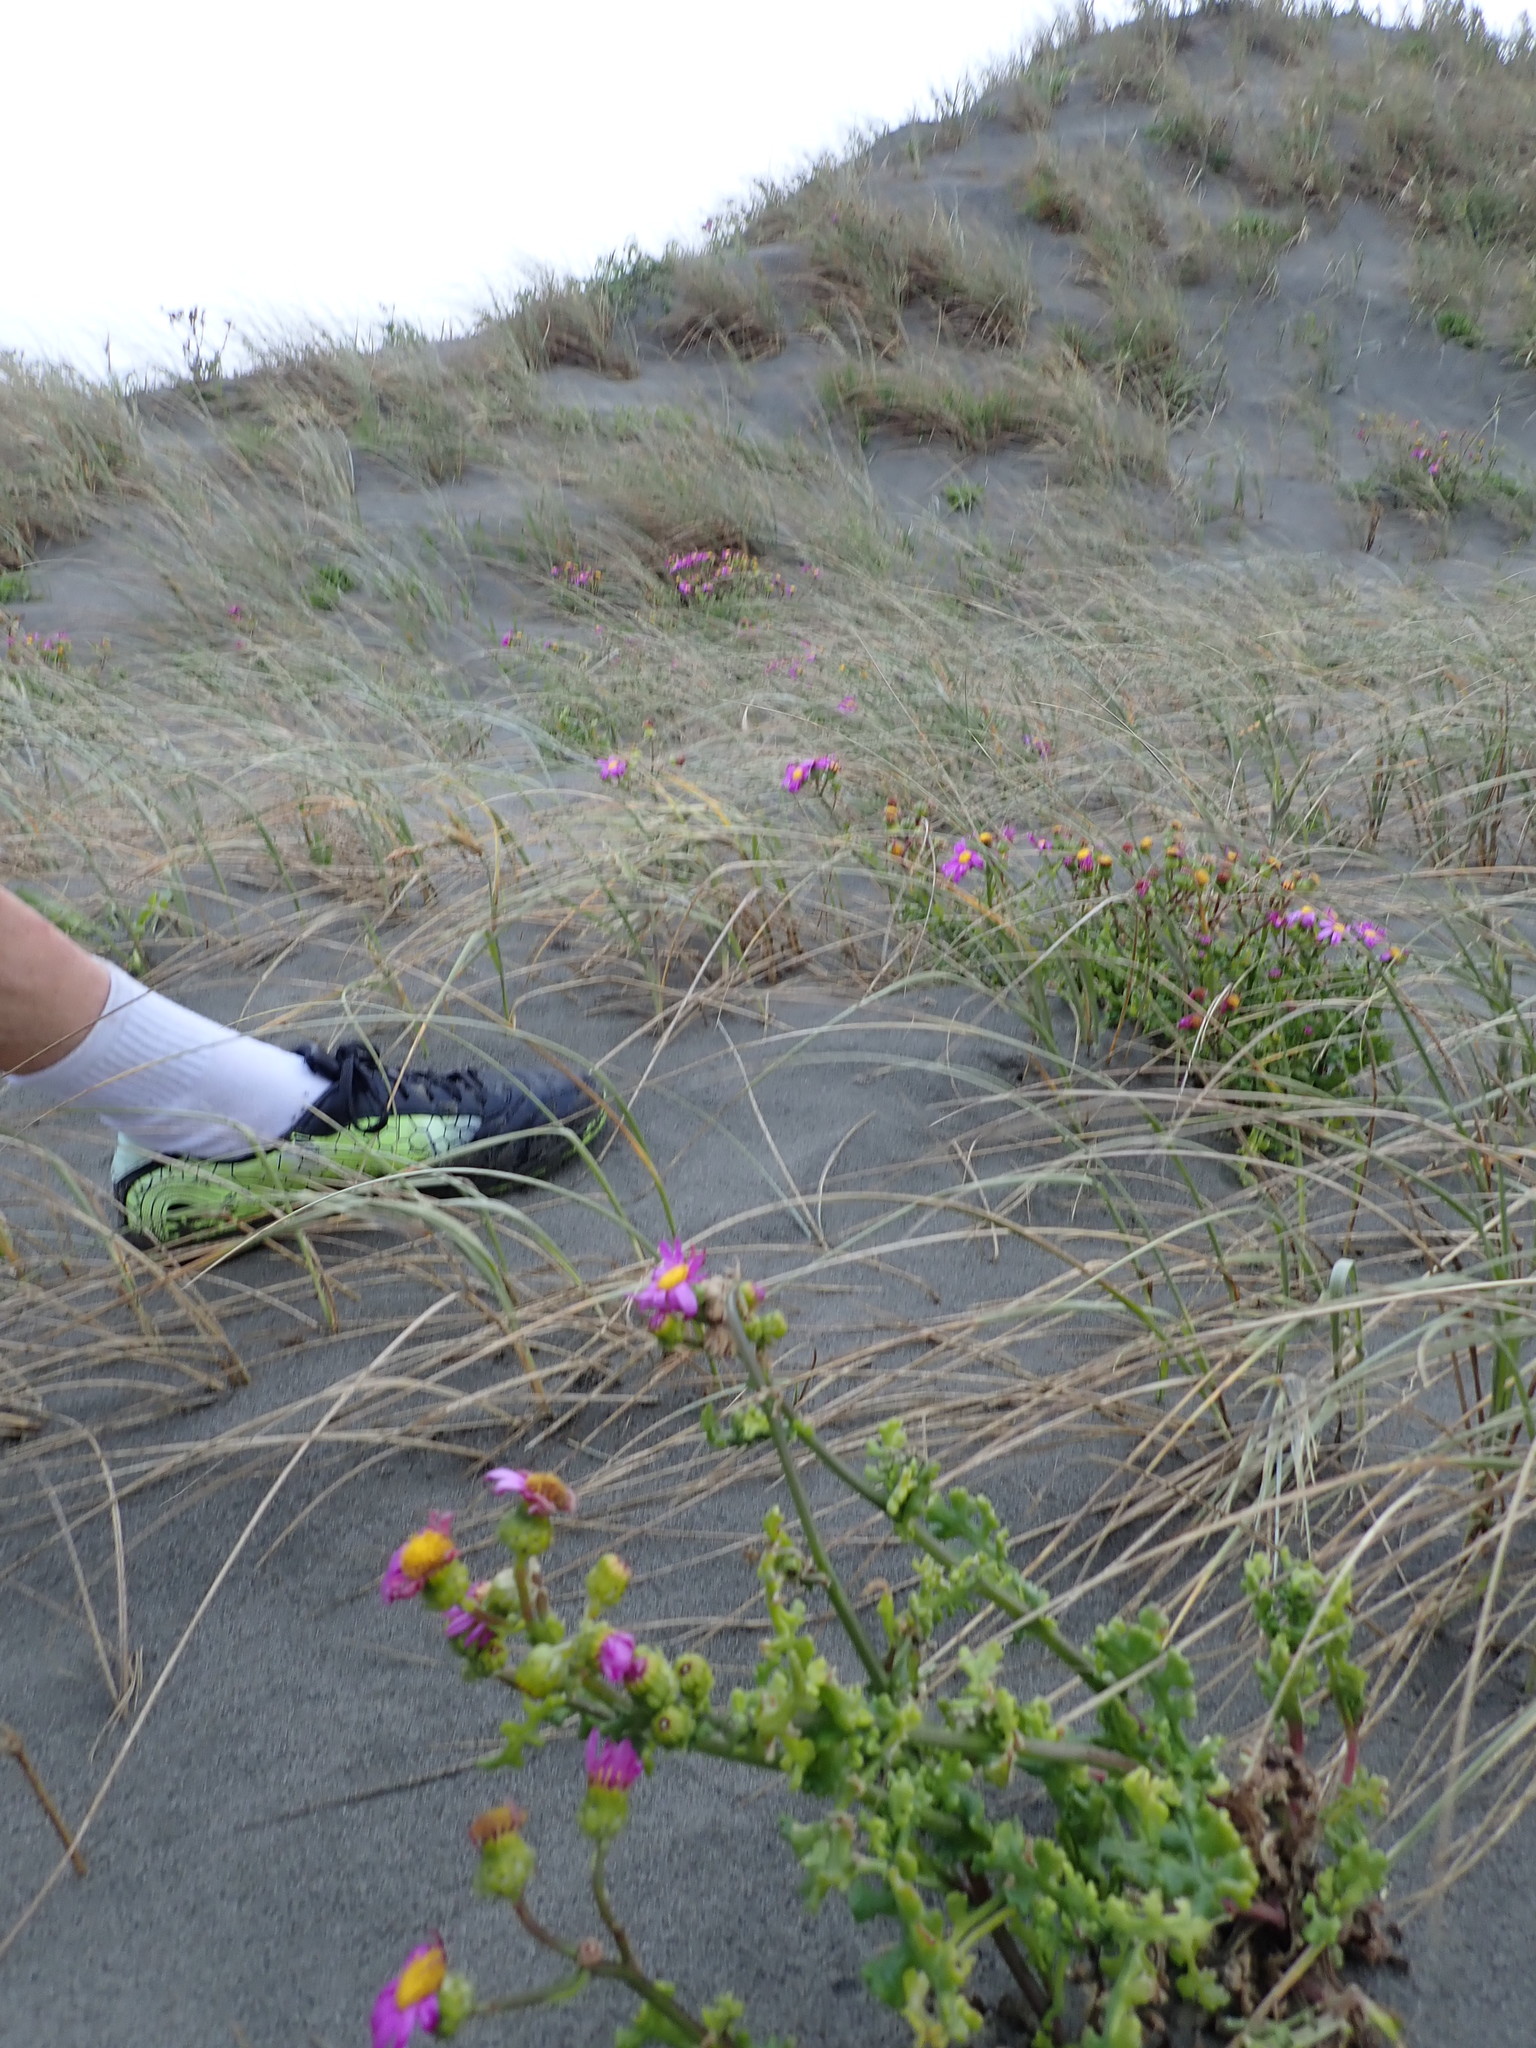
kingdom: Plantae
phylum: Tracheophyta
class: Magnoliopsida
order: Asterales
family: Asteraceae
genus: Senecio
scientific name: Senecio elegans
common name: Purple groundsel
